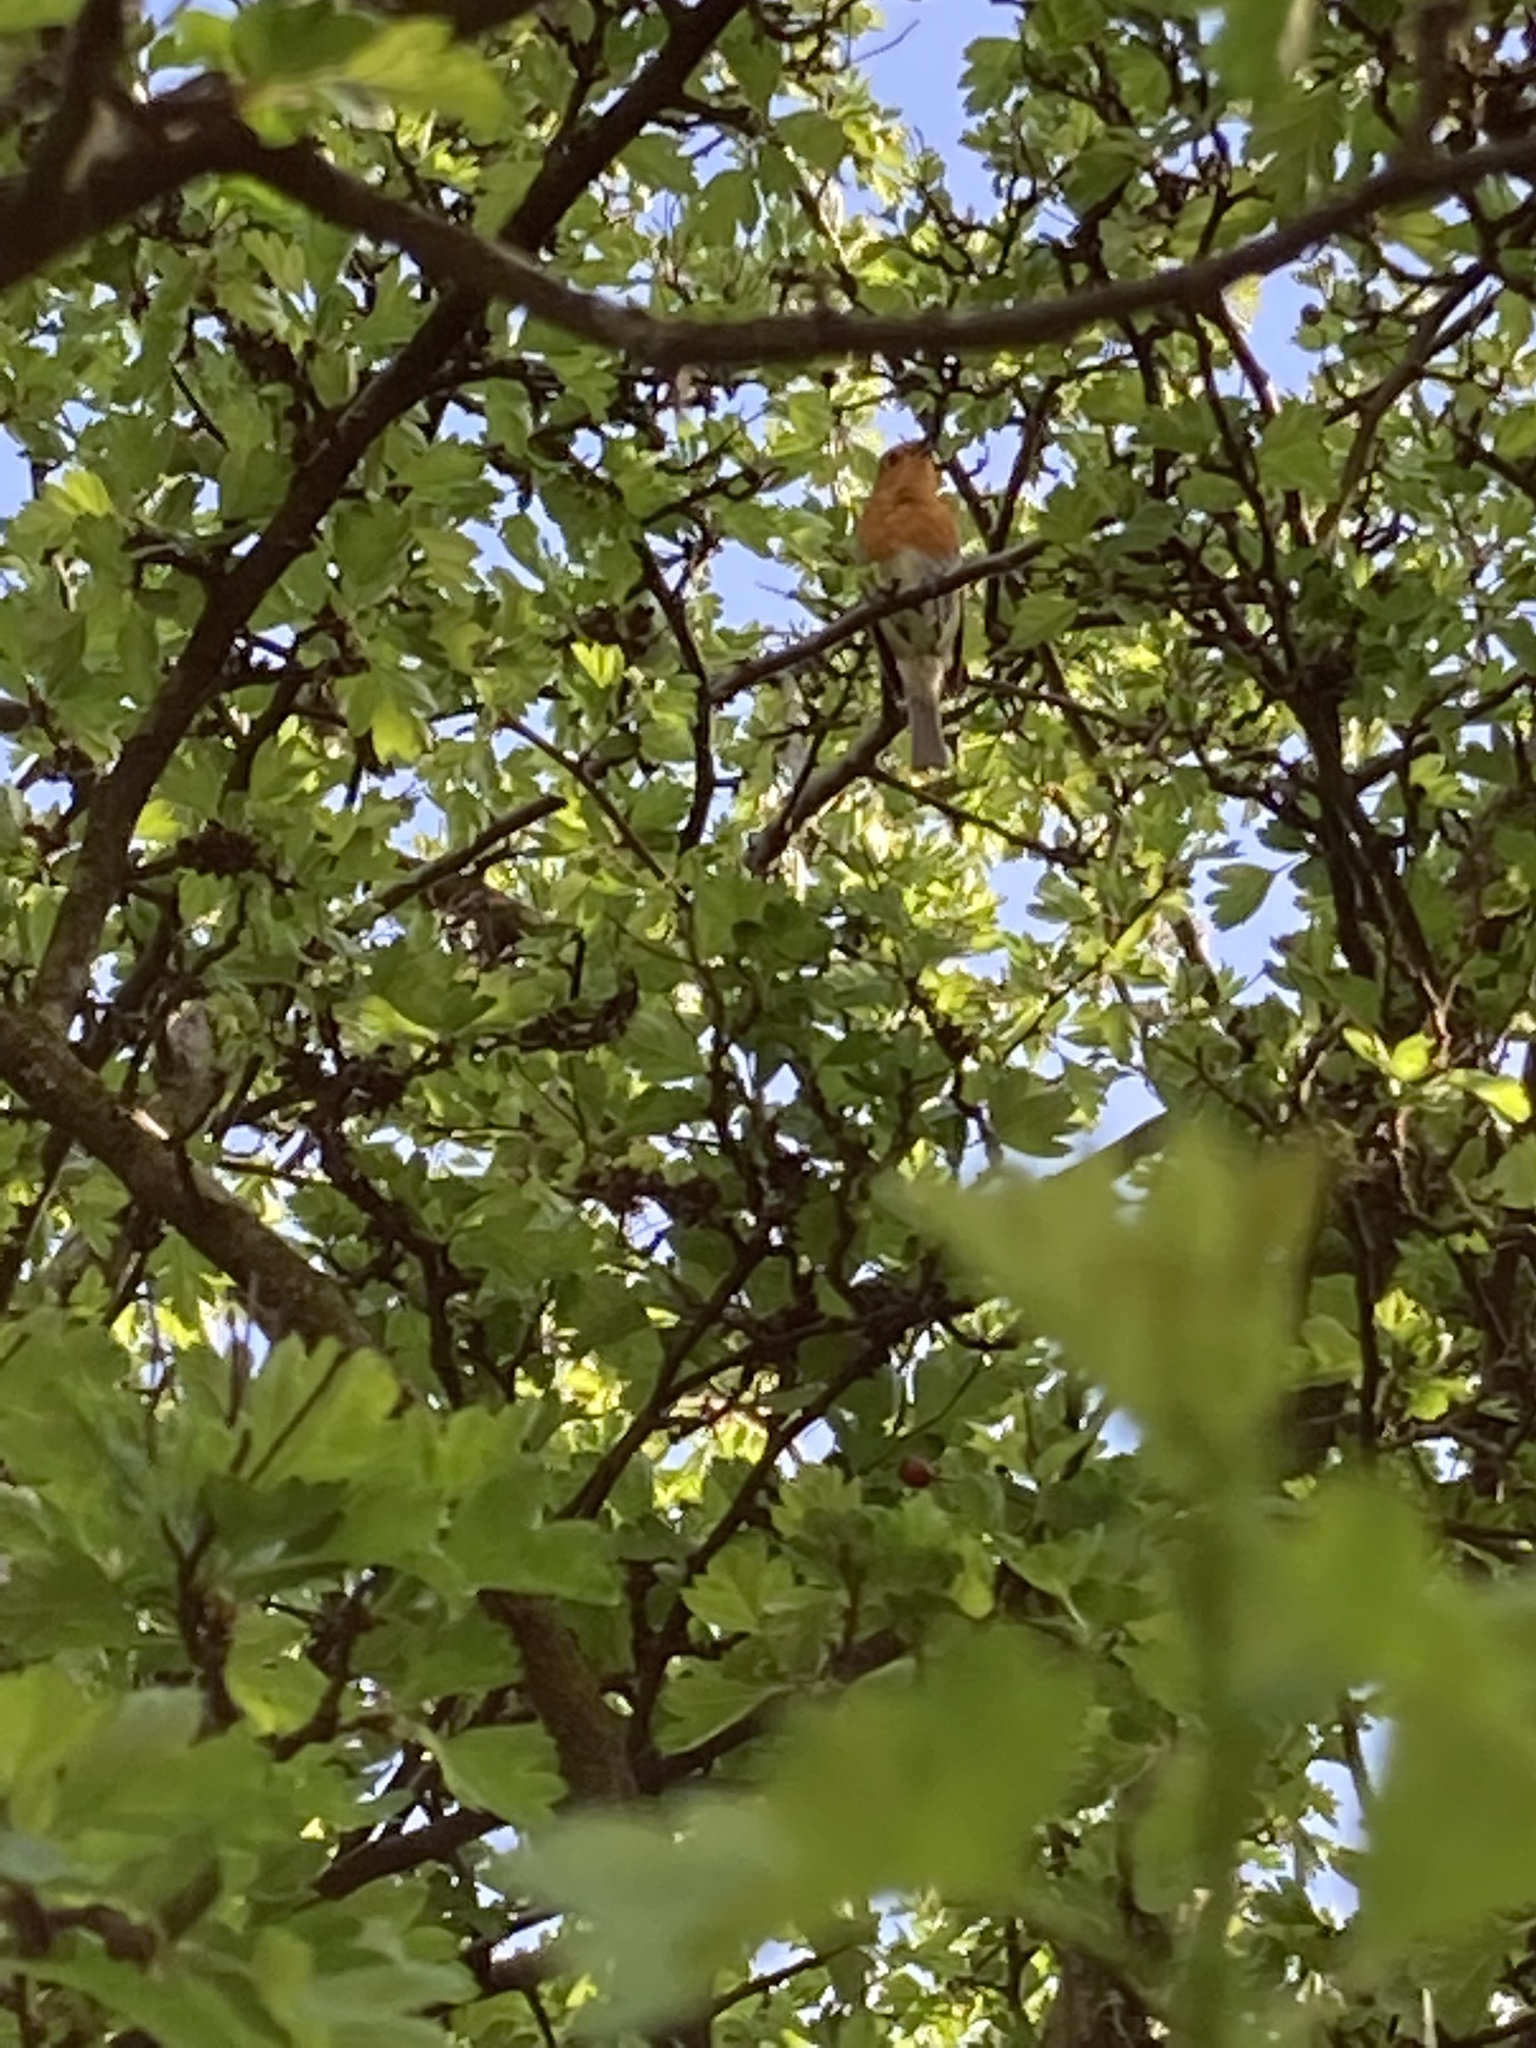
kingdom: Animalia
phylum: Chordata
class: Aves
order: Passeriformes
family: Muscicapidae
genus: Erithacus
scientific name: Erithacus rubecula
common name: European robin
